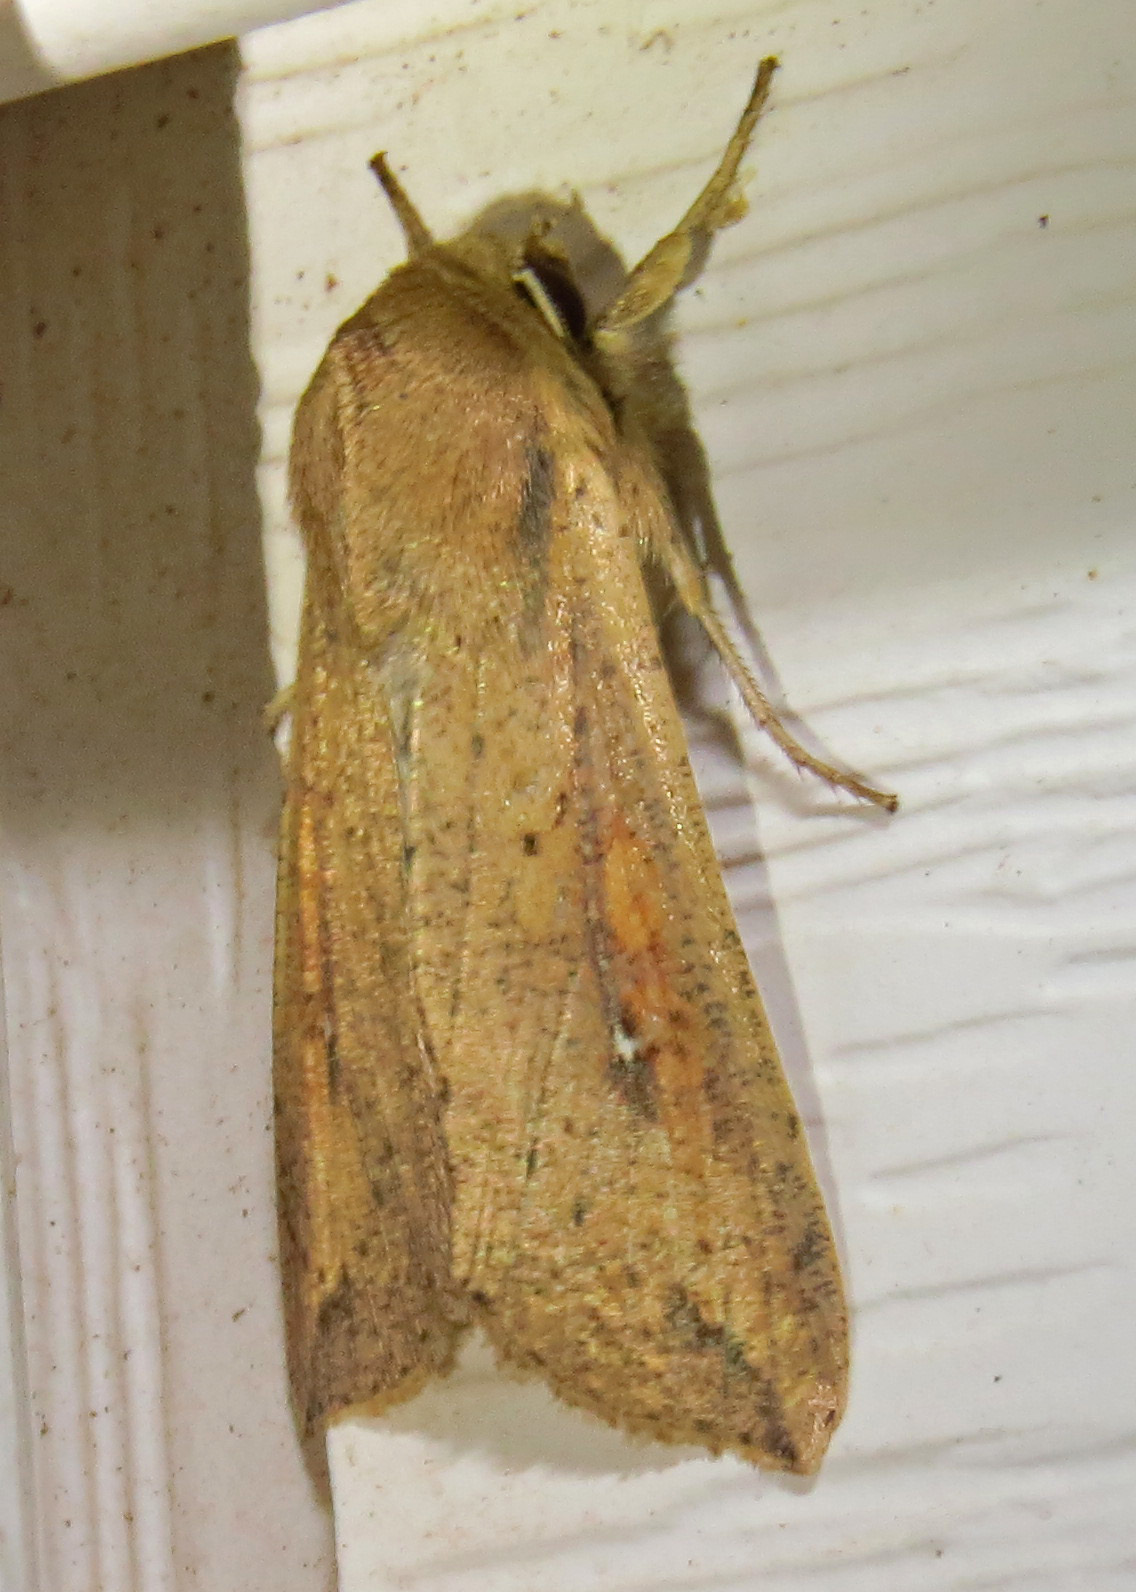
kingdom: Animalia
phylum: Arthropoda
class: Insecta
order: Lepidoptera
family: Noctuidae
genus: Mythimna
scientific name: Mythimna unipuncta
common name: White-speck
